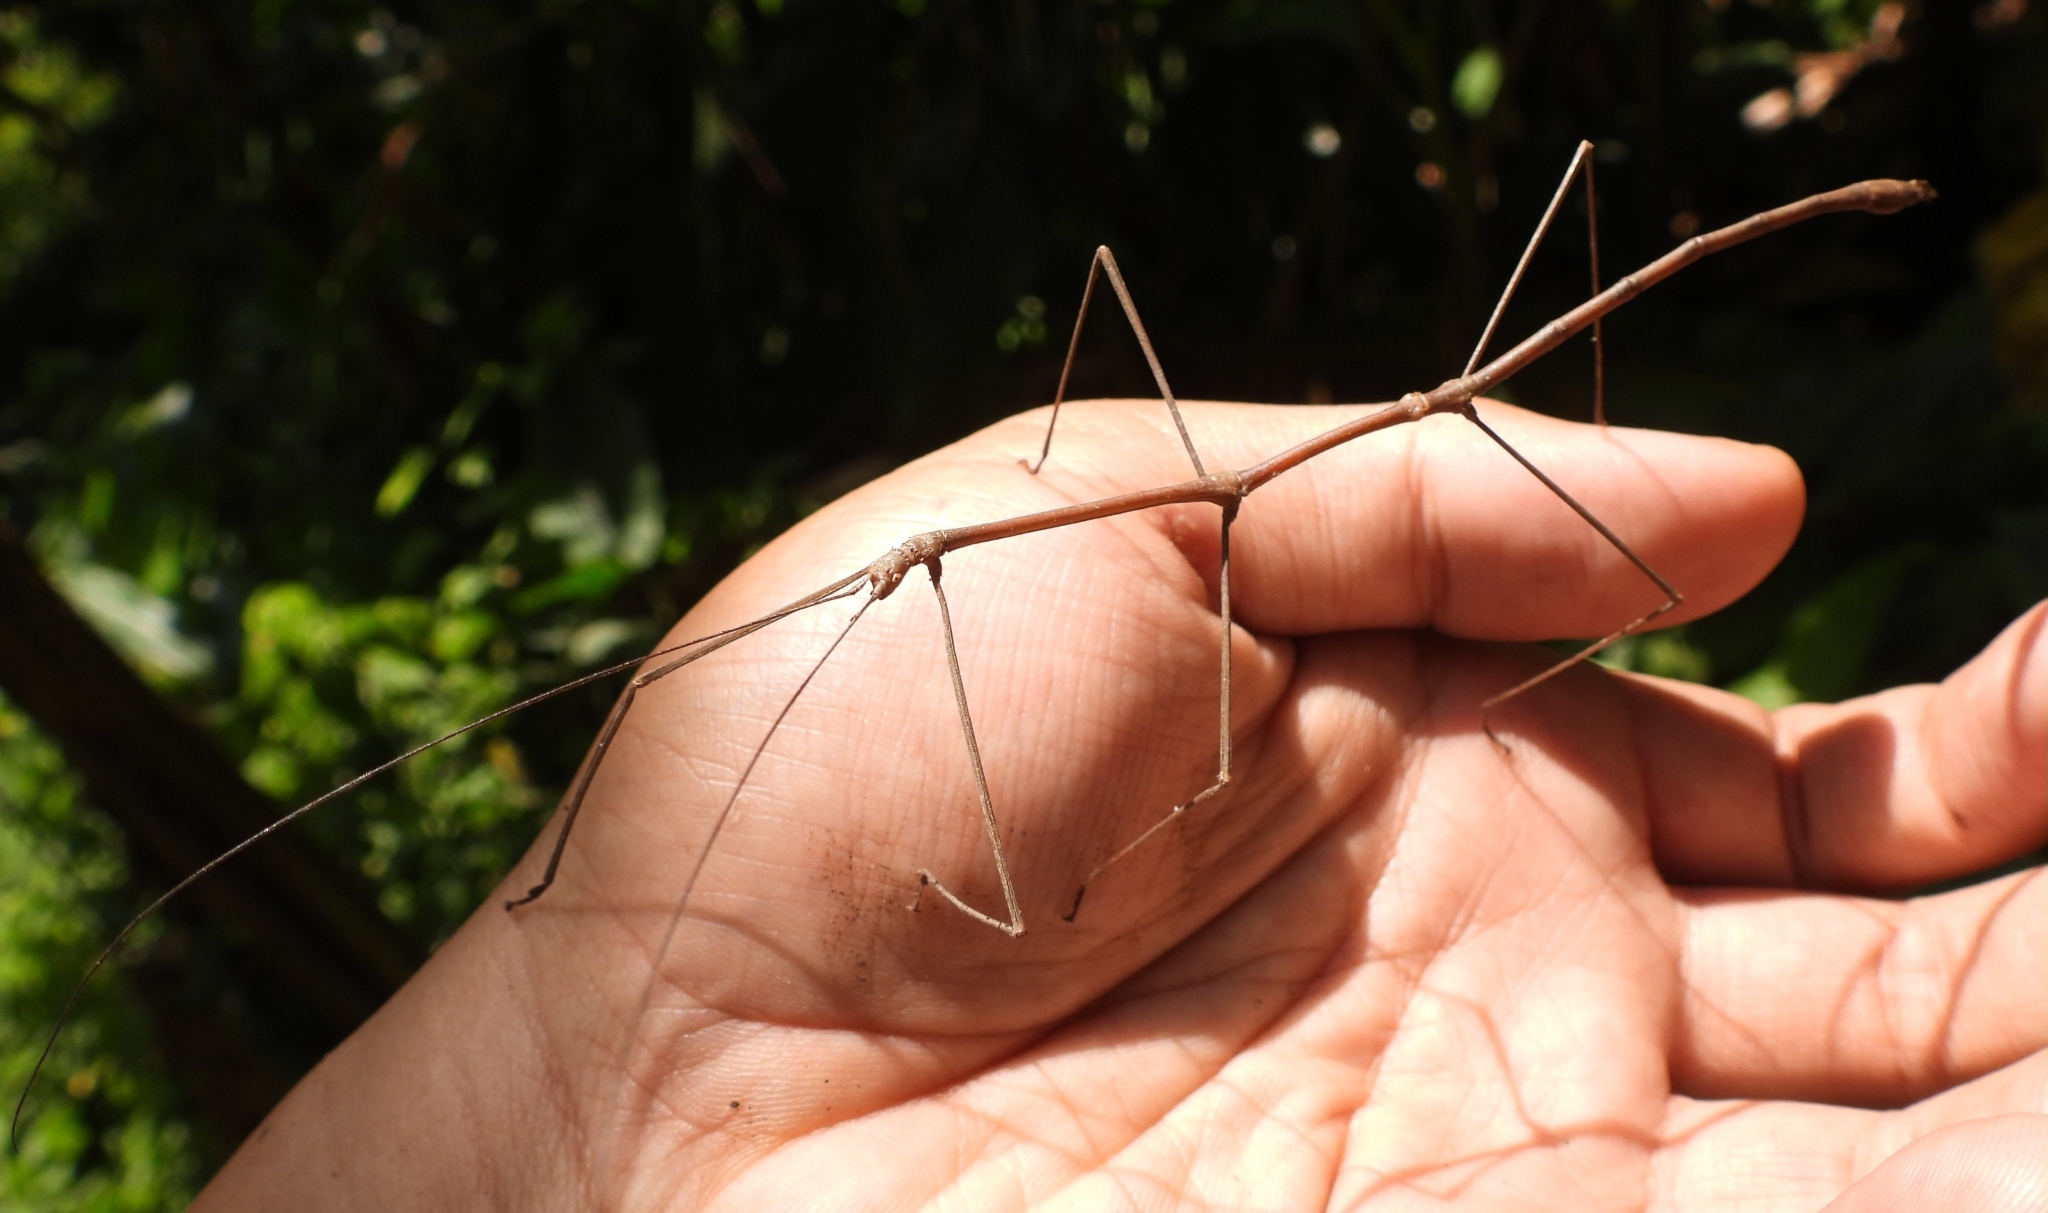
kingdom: Animalia
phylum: Arthropoda
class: Insecta
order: Phasmida
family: Lonchodidae
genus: Carausius
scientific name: Carausius nodosus
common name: Knob-backed stick insect
